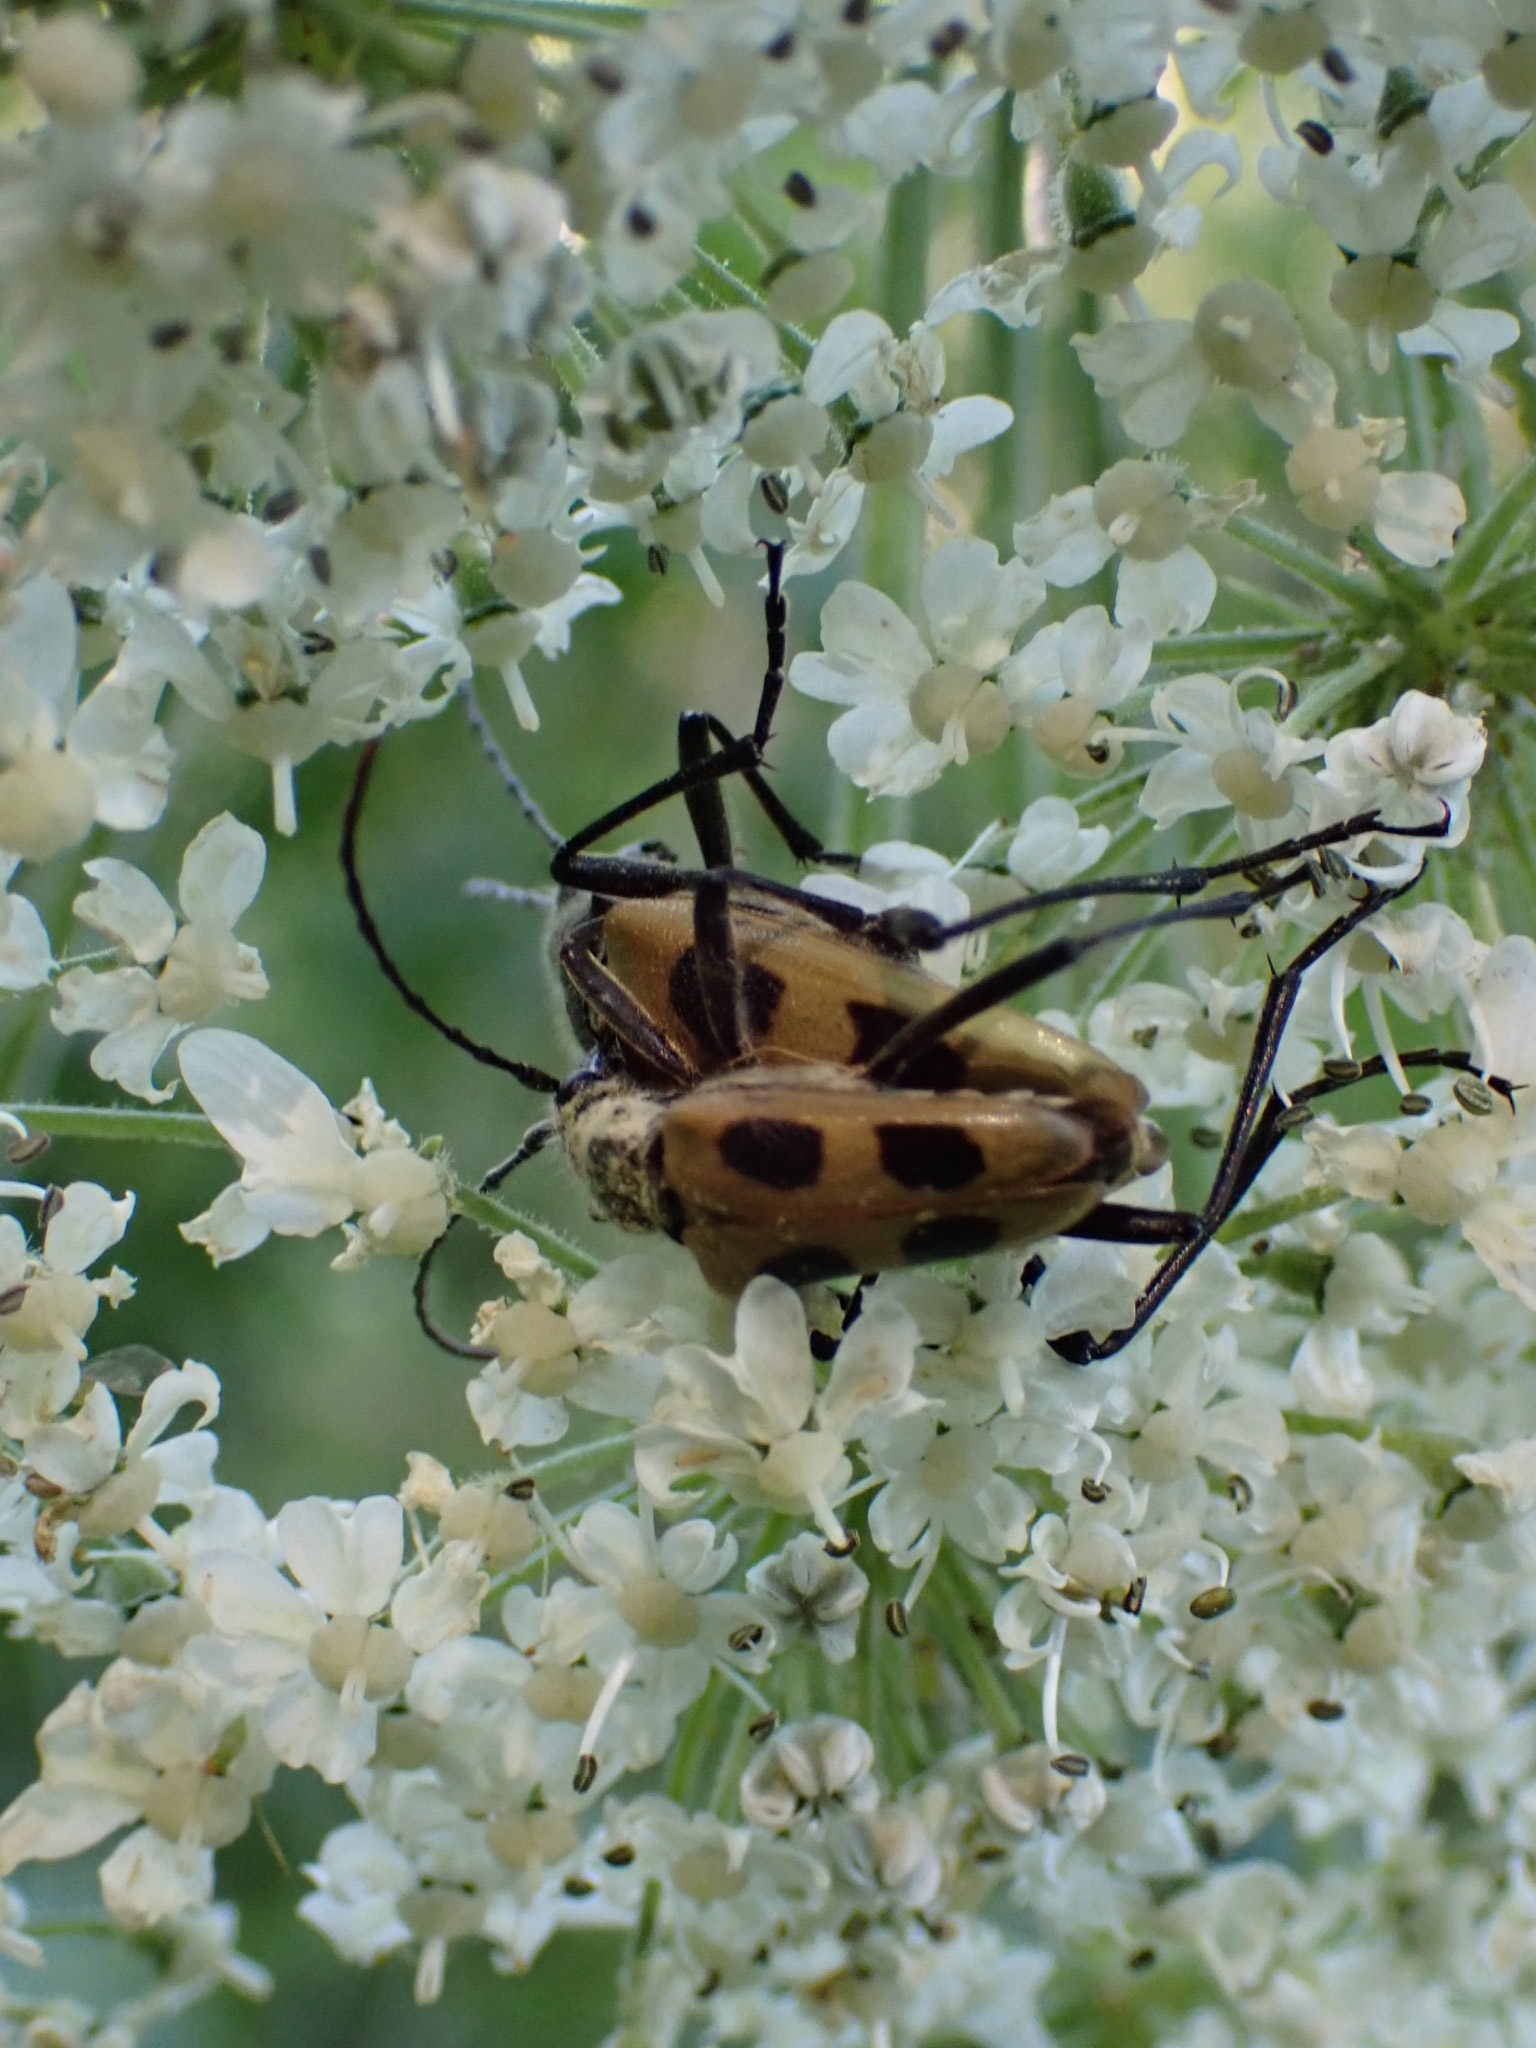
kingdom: Animalia
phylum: Arthropoda
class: Insecta
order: Coleoptera
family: Cerambycidae
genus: Pachyta
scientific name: Pachyta quadrimaculata
